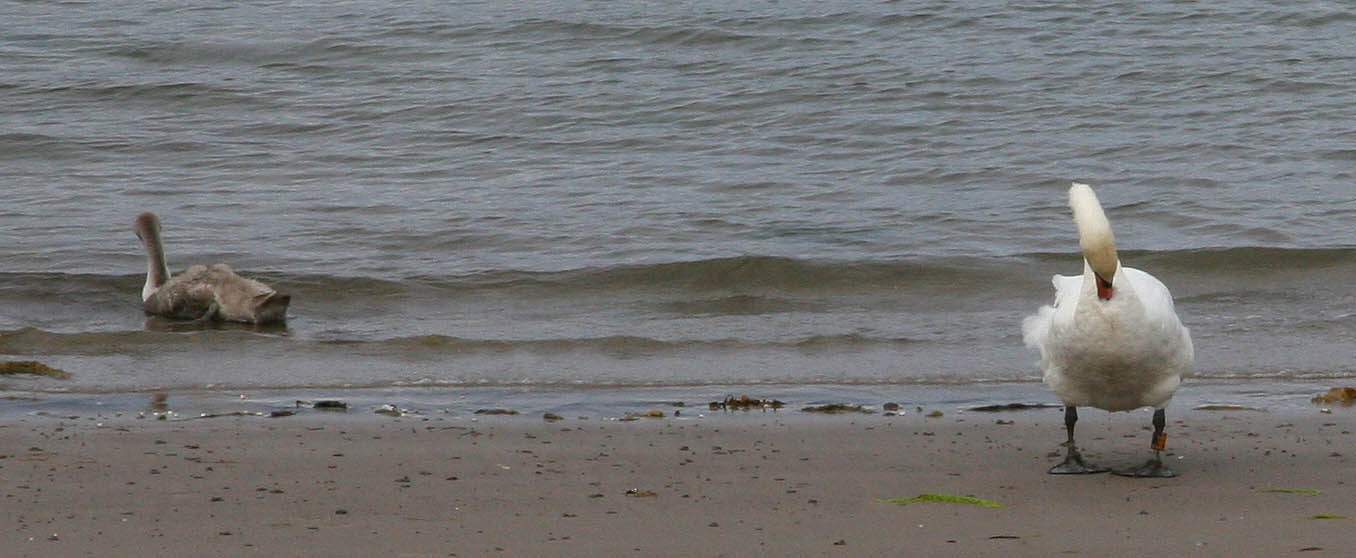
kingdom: Animalia
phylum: Chordata
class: Aves
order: Anseriformes
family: Anatidae
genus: Cygnus
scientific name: Cygnus olor
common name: Mute swan
